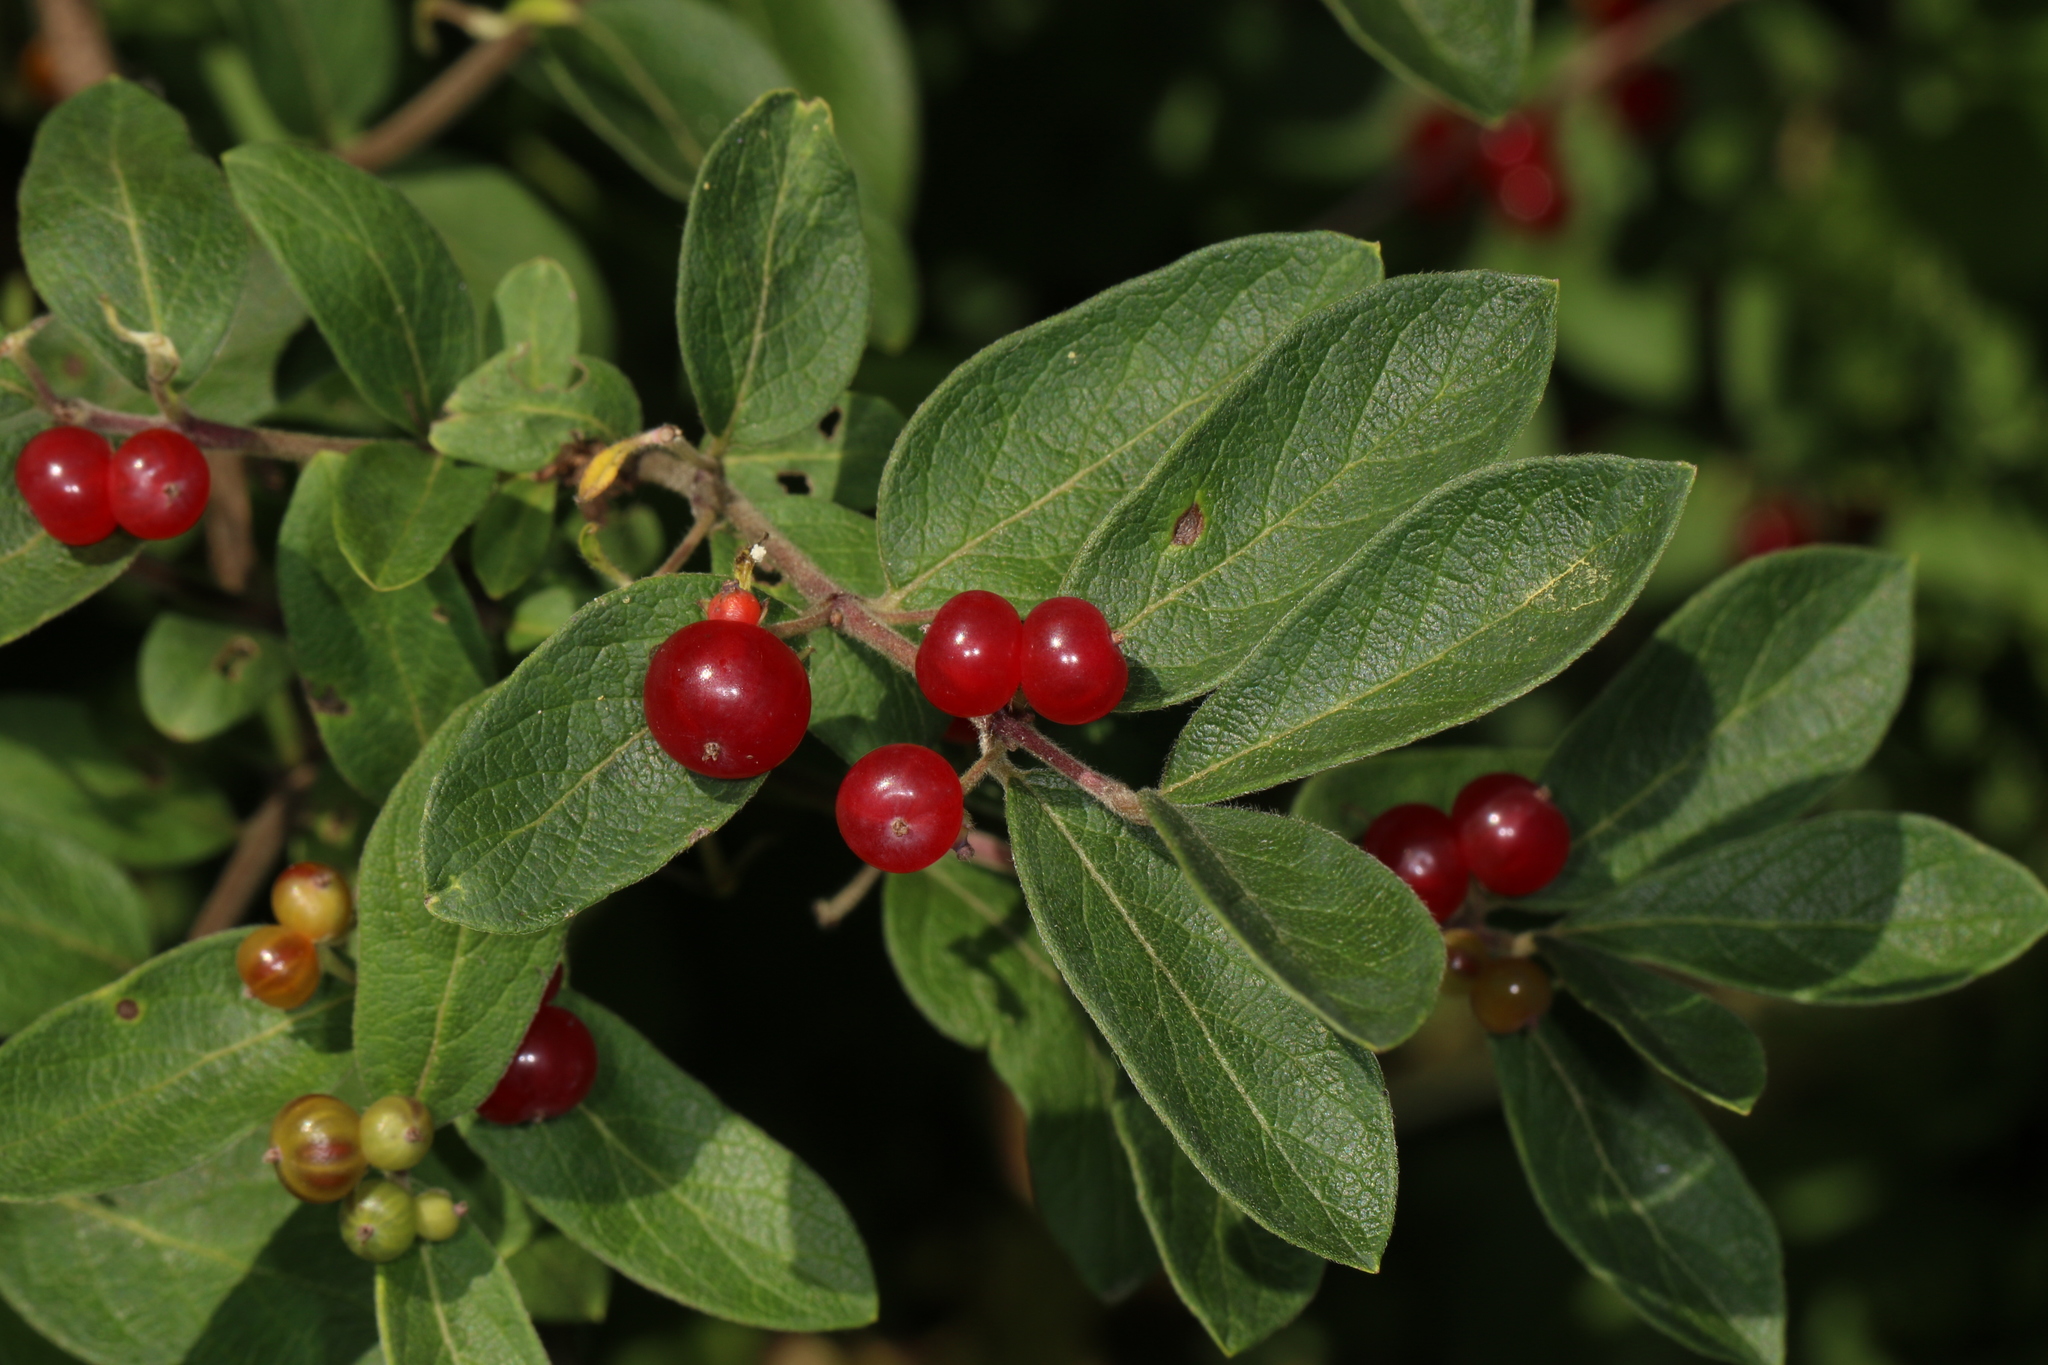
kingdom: Plantae
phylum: Tracheophyta
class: Magnoliopsida
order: Dipsacales
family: Caprifoliaceae
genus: Lonicera
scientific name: Lonicera morrowii
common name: Morrow's honeysuckle
